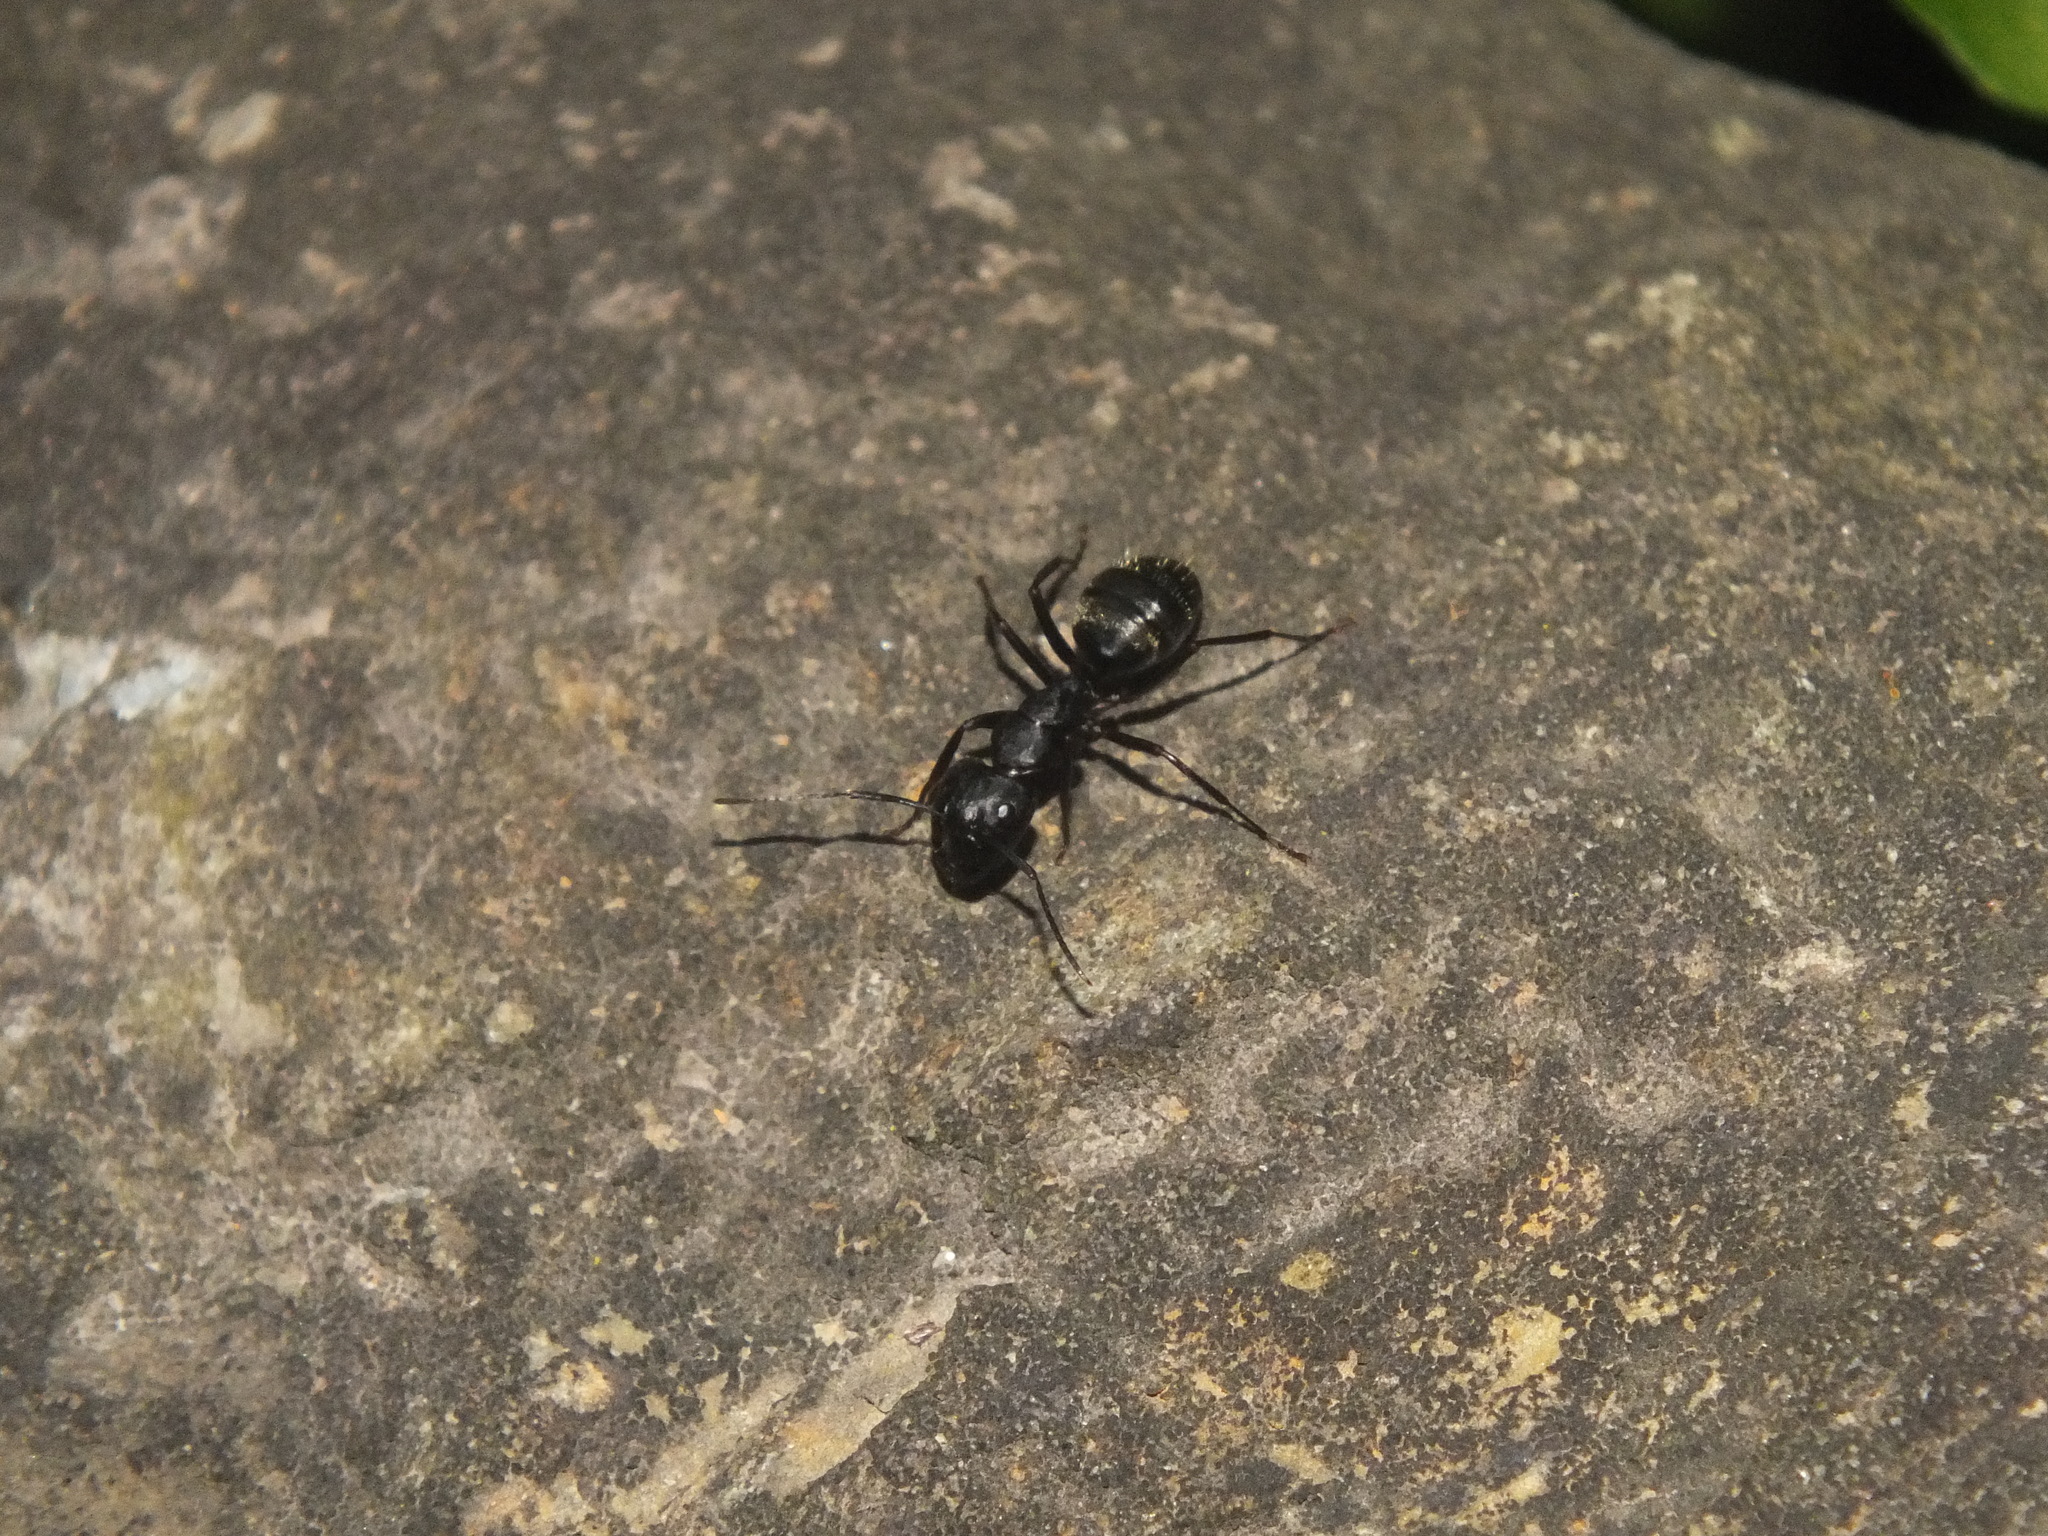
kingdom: Animalia
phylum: Arthropoda
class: Insecta
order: Hymenoptera
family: Formicidae
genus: Camponotus
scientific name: Camponotus pennsylvanicus
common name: Black carpenter ant
